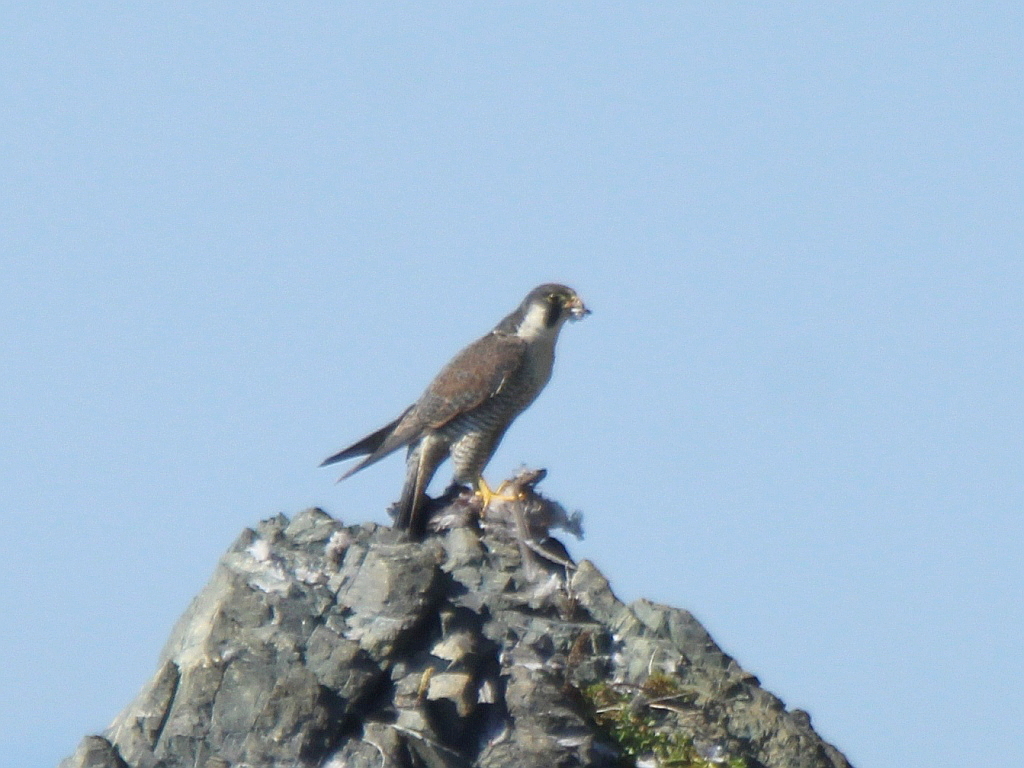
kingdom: Animalia
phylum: Chordata
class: Aves
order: Falconiformes
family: Falconidae
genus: Falco
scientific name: Falco peregrinus
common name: Peregrine falcon
